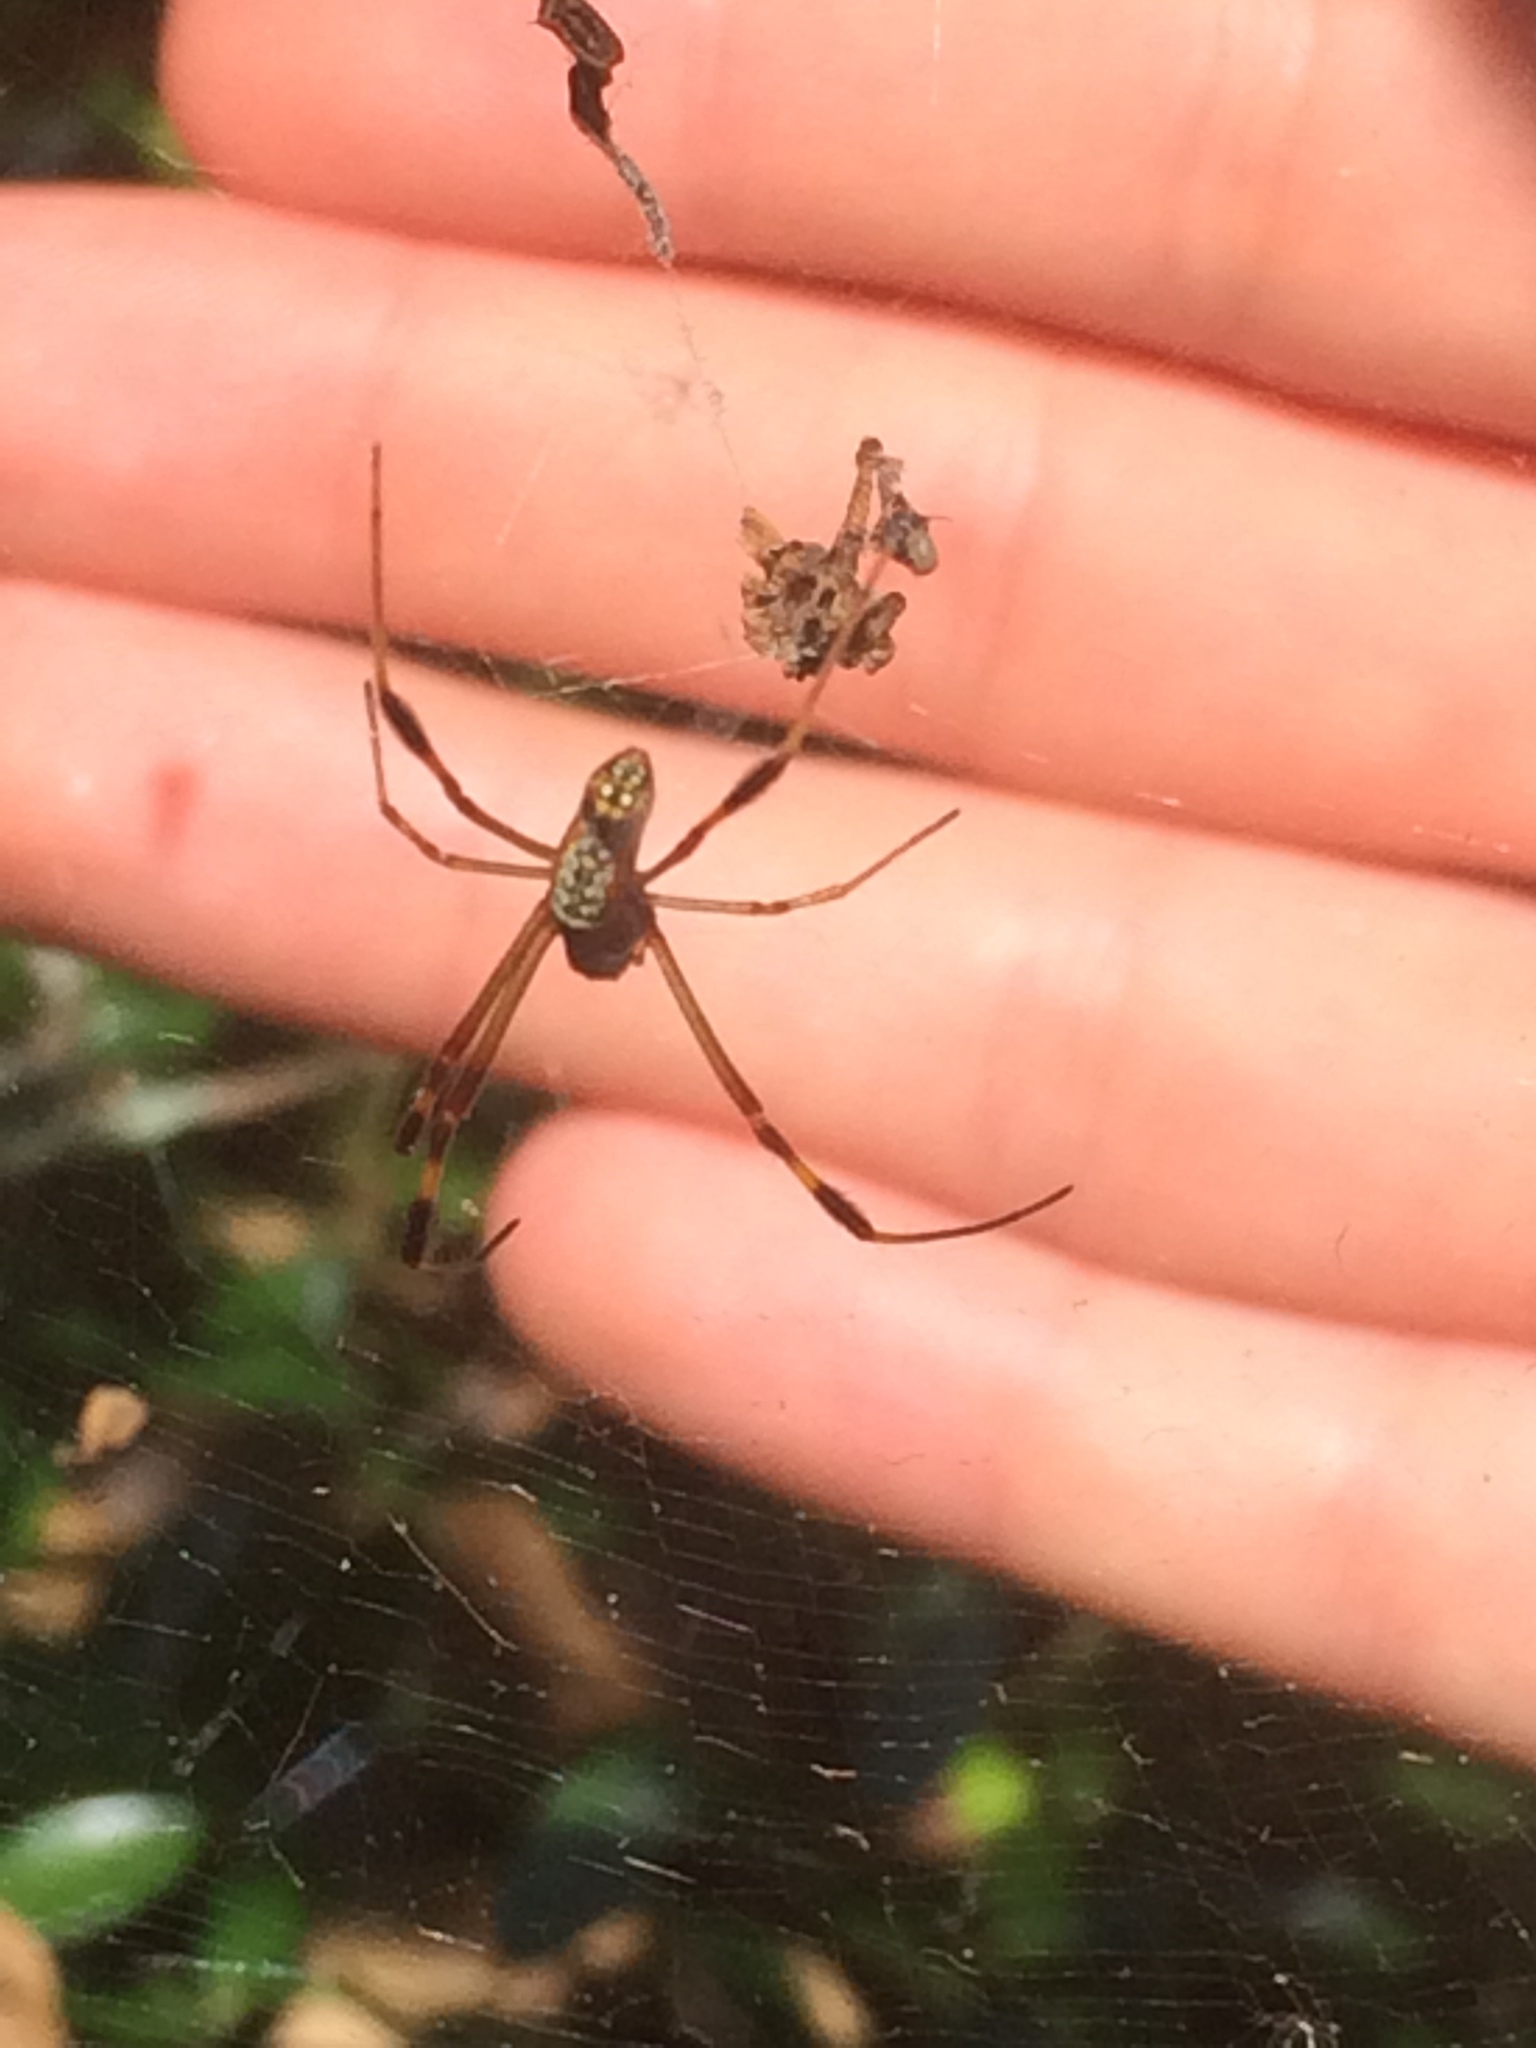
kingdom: Animalia
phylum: Arthropoda
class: Arachnida
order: Araneae
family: Araneidae
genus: Trichonephila
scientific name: Trichonephila clavipes
